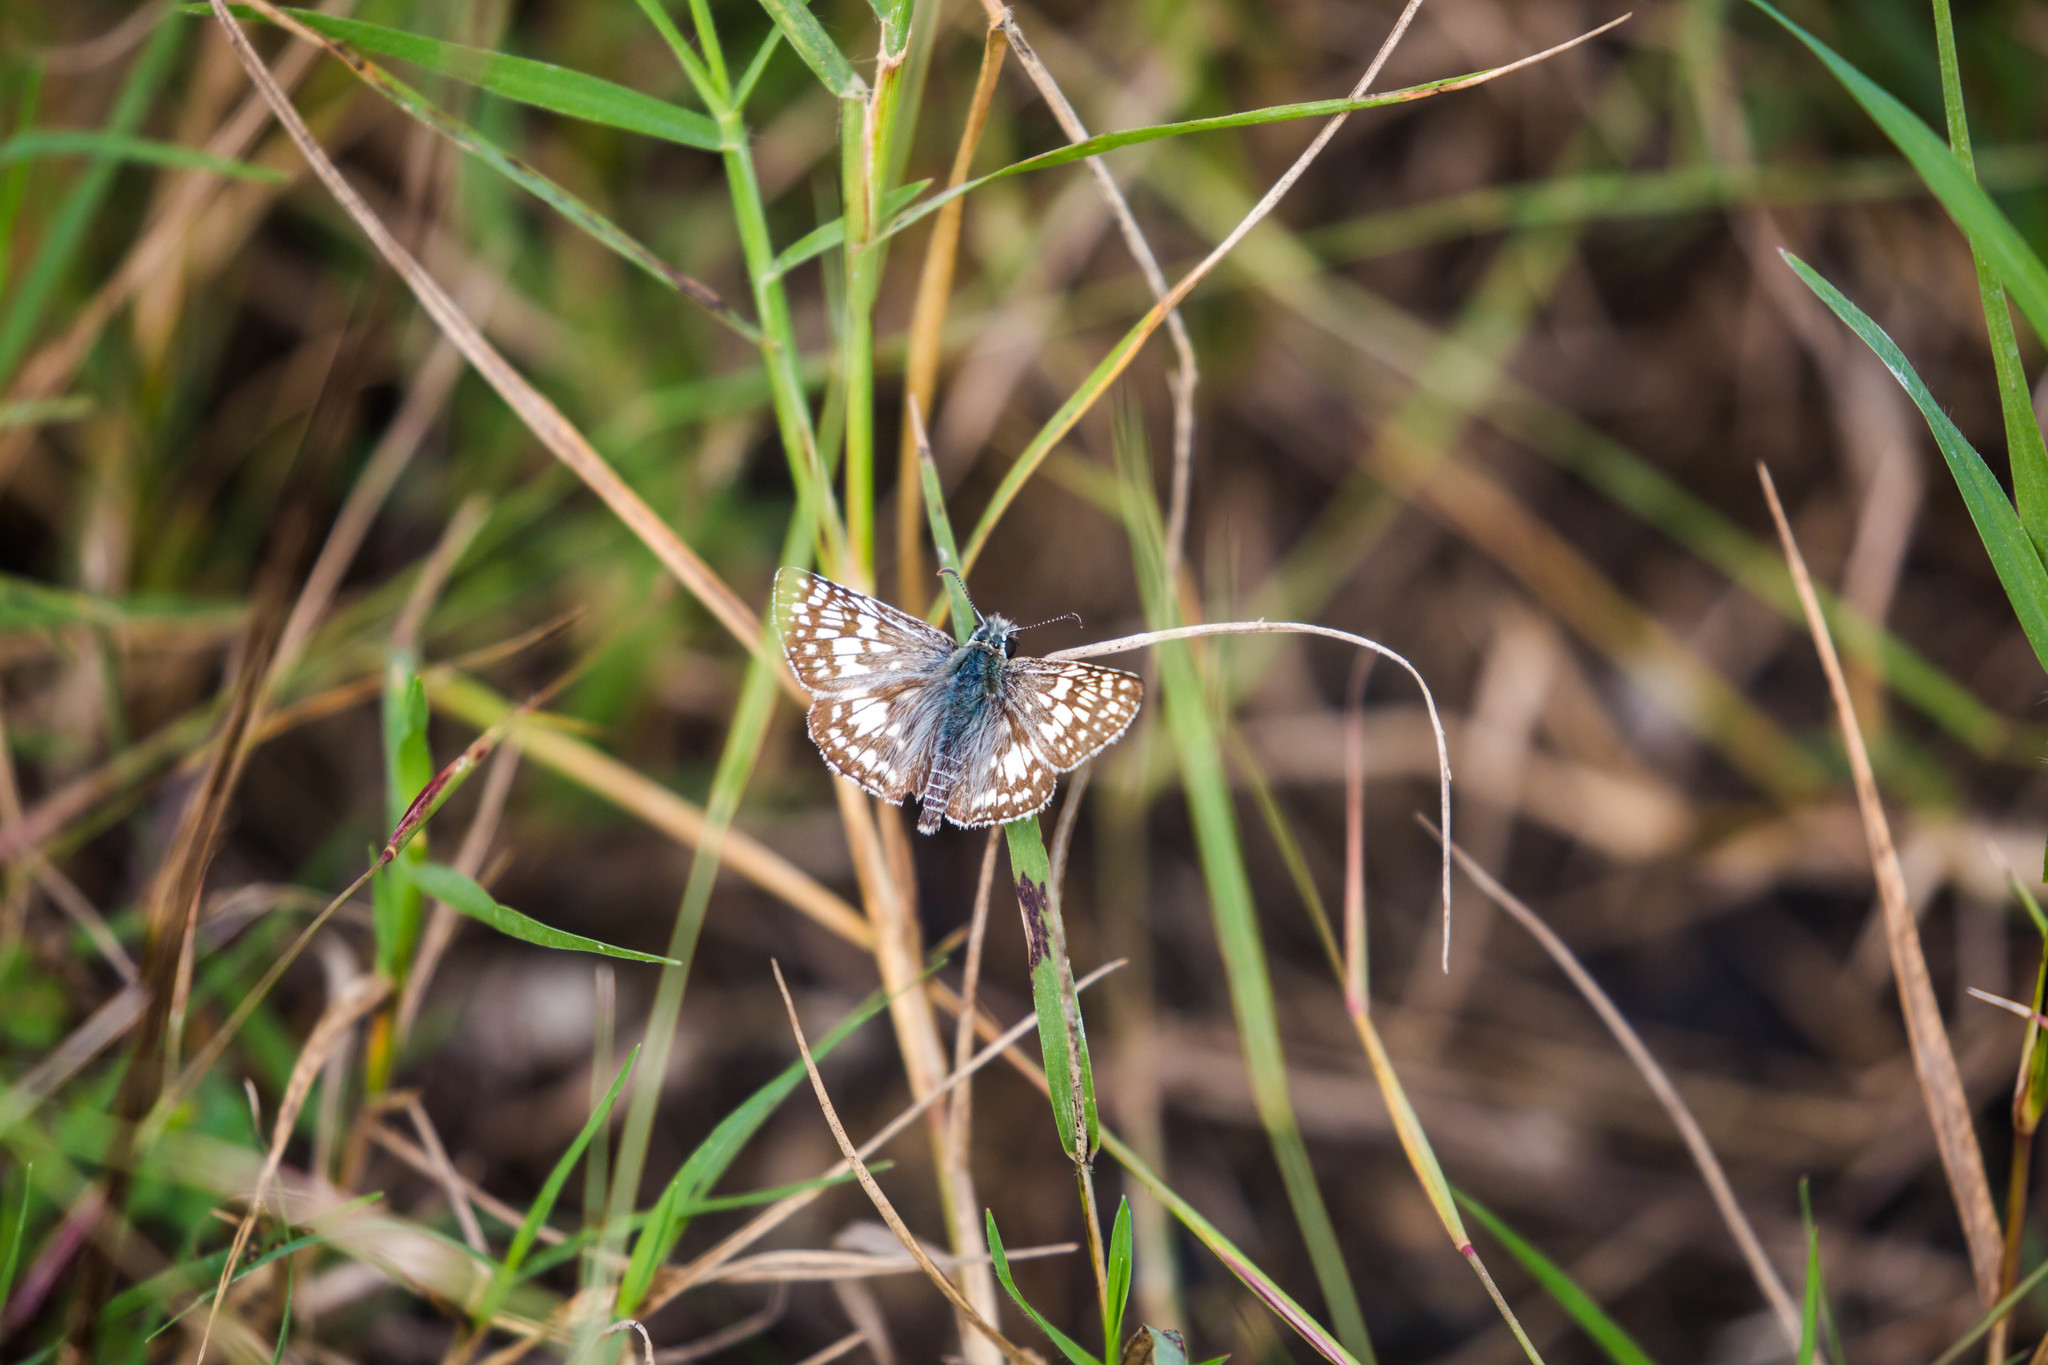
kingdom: Animalia
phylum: Arthropoda
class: Insecta
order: Lepidoptera
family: Hesperiidae
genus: Burnsius
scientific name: Burnsius communis
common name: Common checkered-skipper
